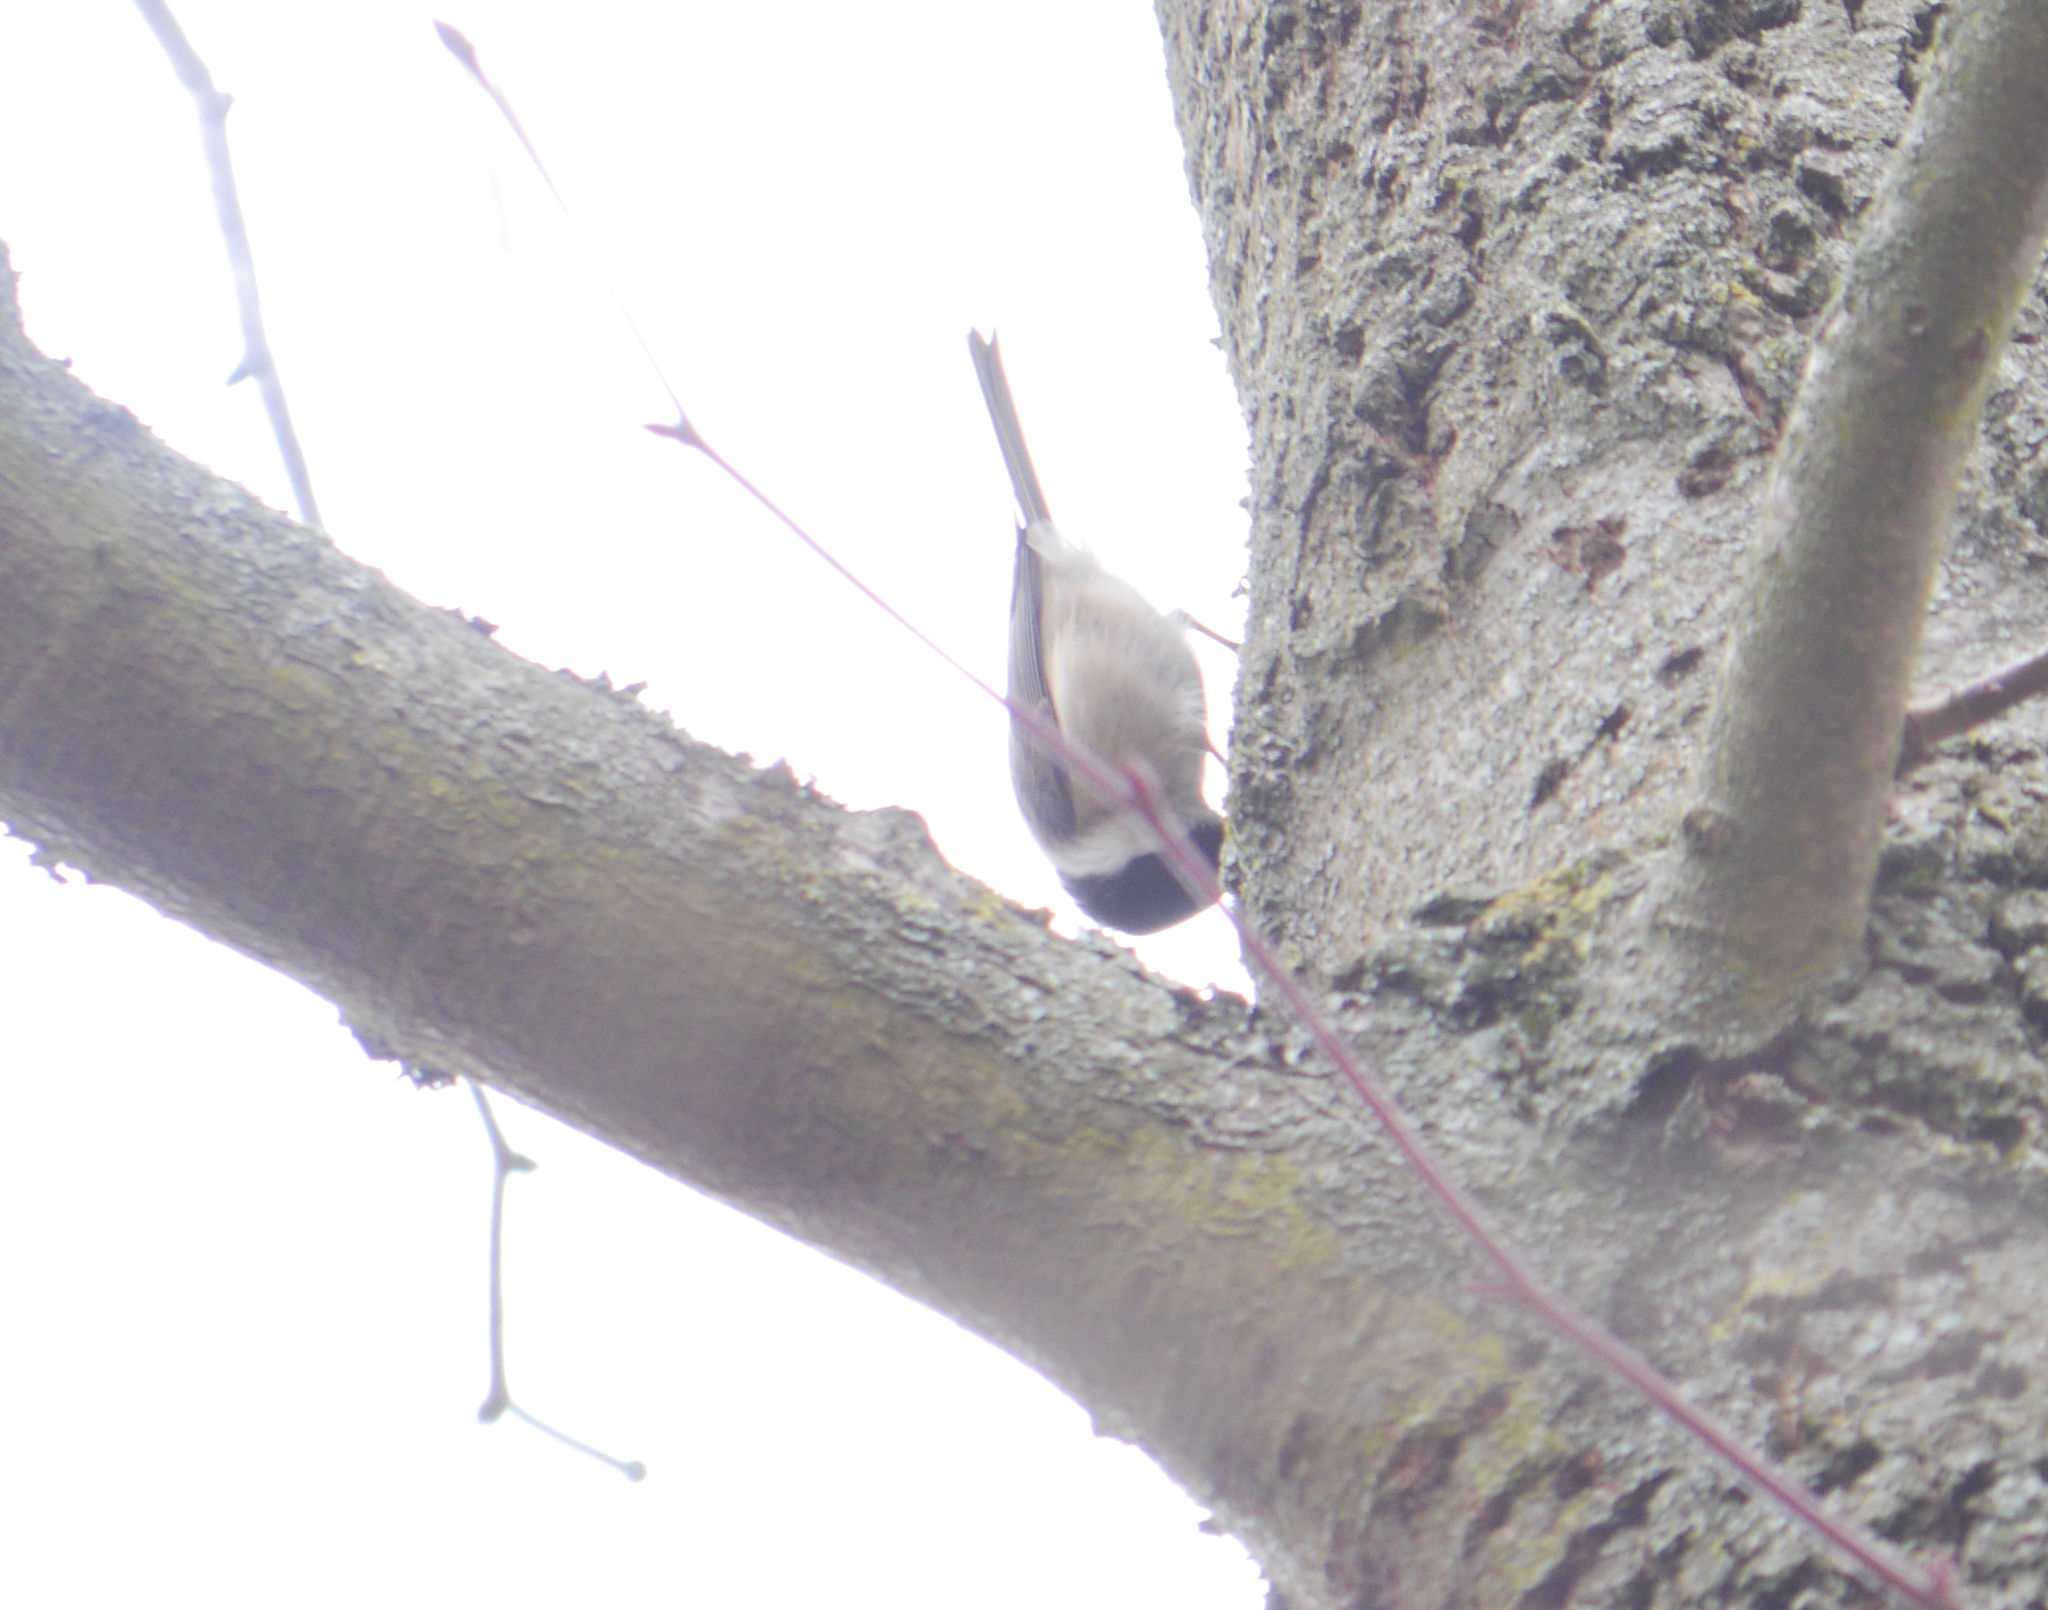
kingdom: Animalia
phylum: Chordata
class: Aves
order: Passeriformes
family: Paridae
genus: Poecile
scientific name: Poecile palustris
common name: Marsh tit
